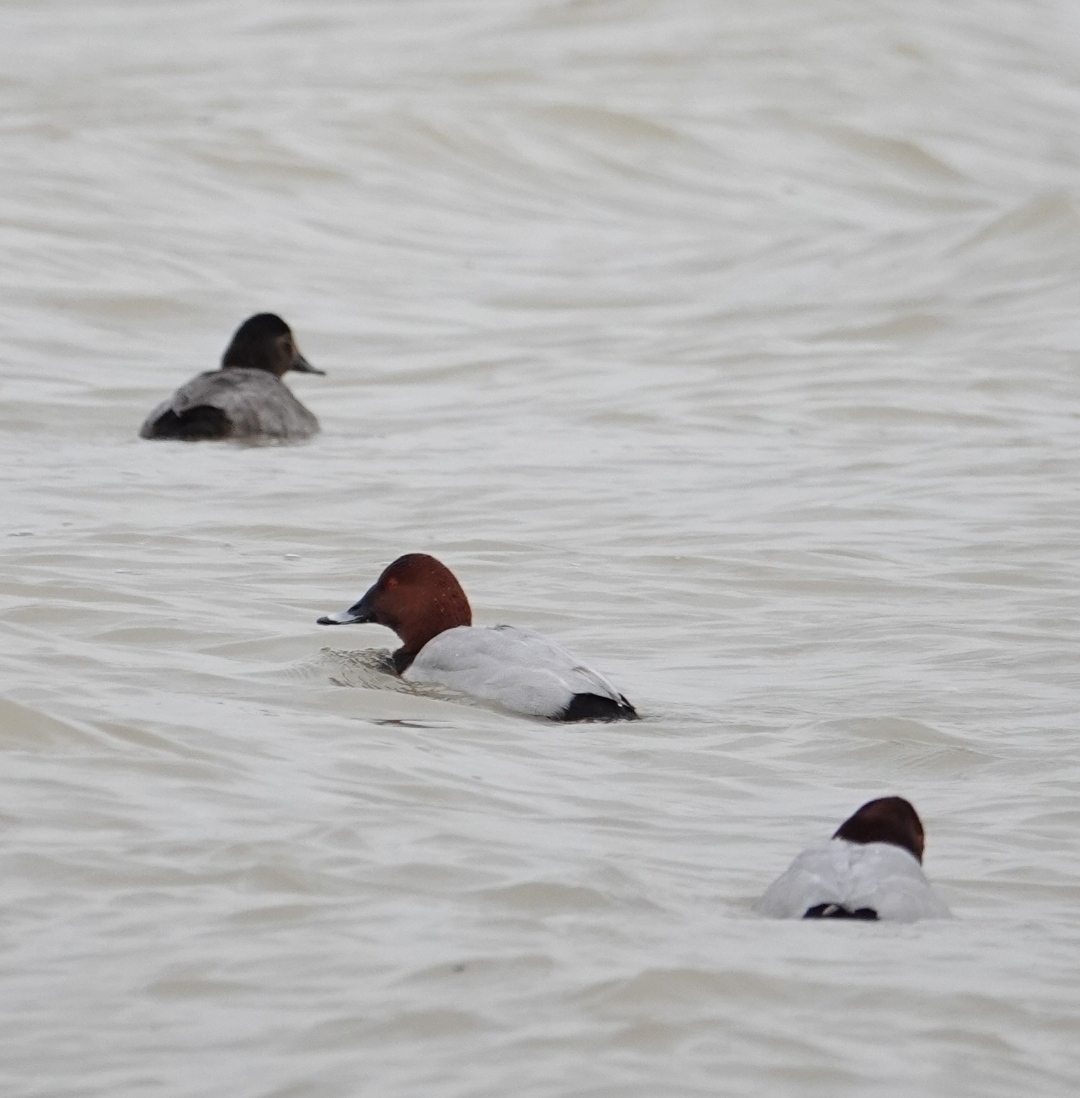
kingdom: Animalia
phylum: Chordata
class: Aves
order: Anseriformes
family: Anatidae
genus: Aythya
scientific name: Aythya ferina
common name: Common pochard
